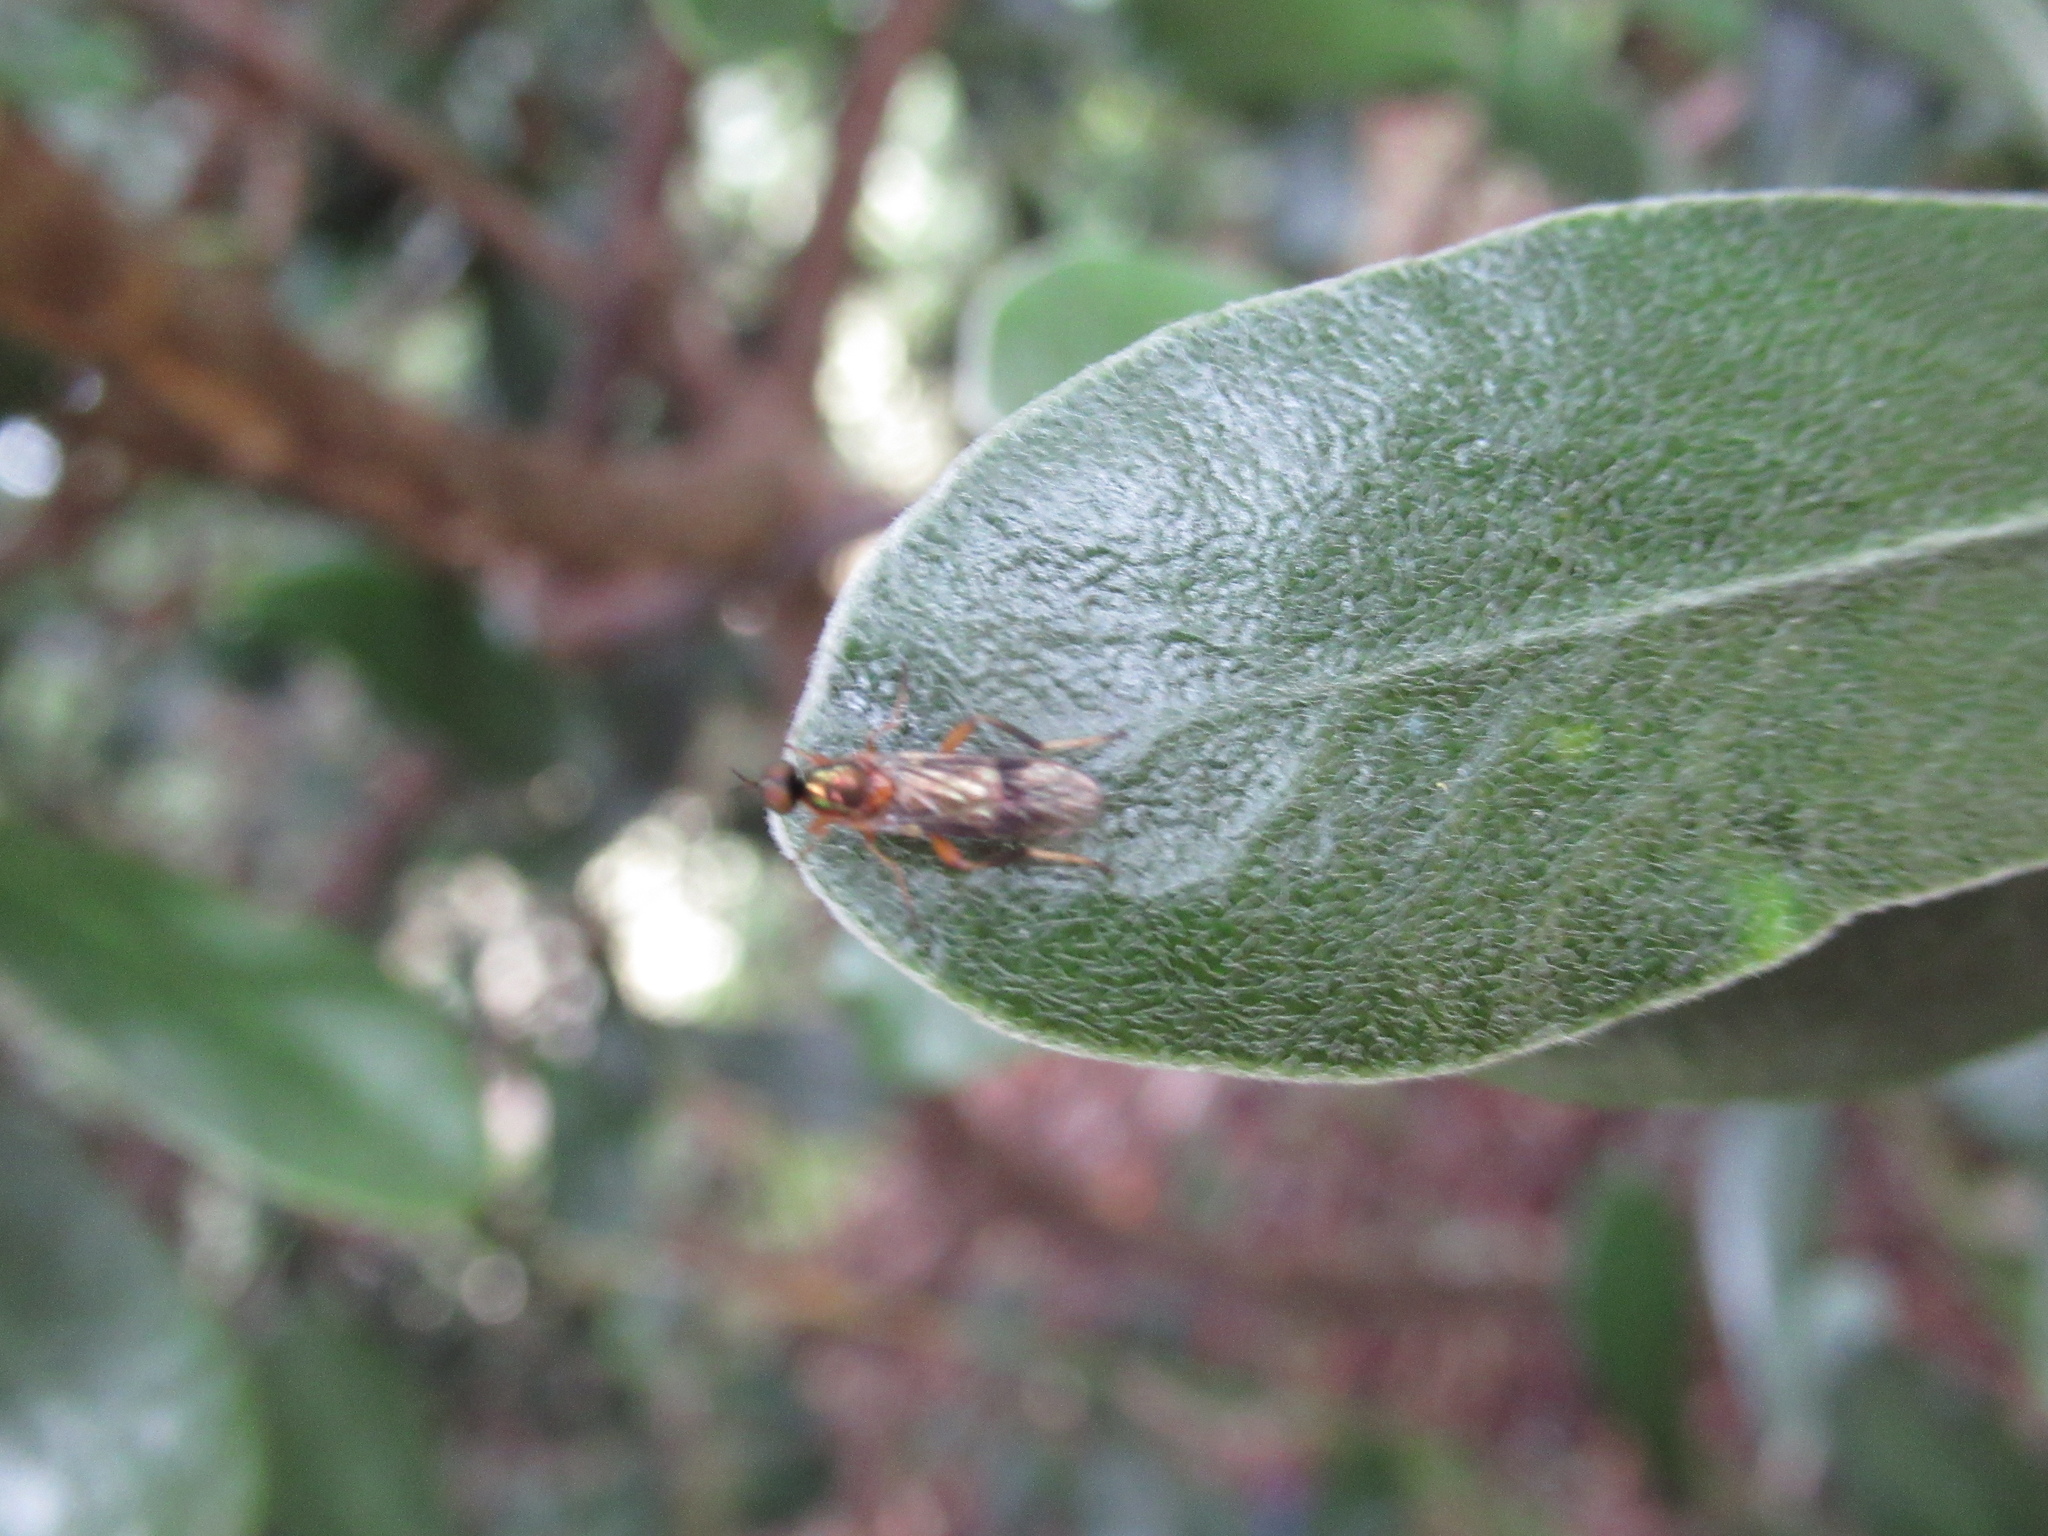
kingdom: Animalia
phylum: Arthropoda
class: Insecta
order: Diptera
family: Stratiomyidae
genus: Benhamyia
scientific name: Benhamyia apicalis
